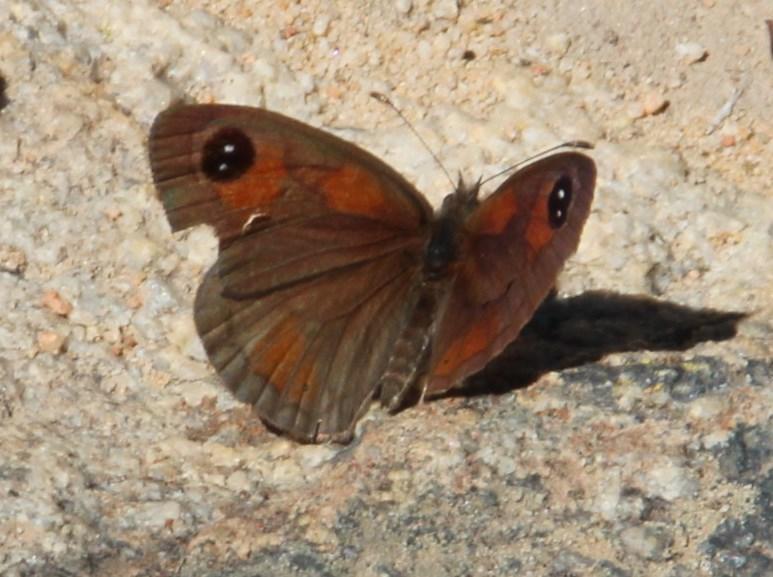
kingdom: Animalia
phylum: Arthropoda
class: Insecta
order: Lepidoptera
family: Nymphalidae
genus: Erebia
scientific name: Erebia
